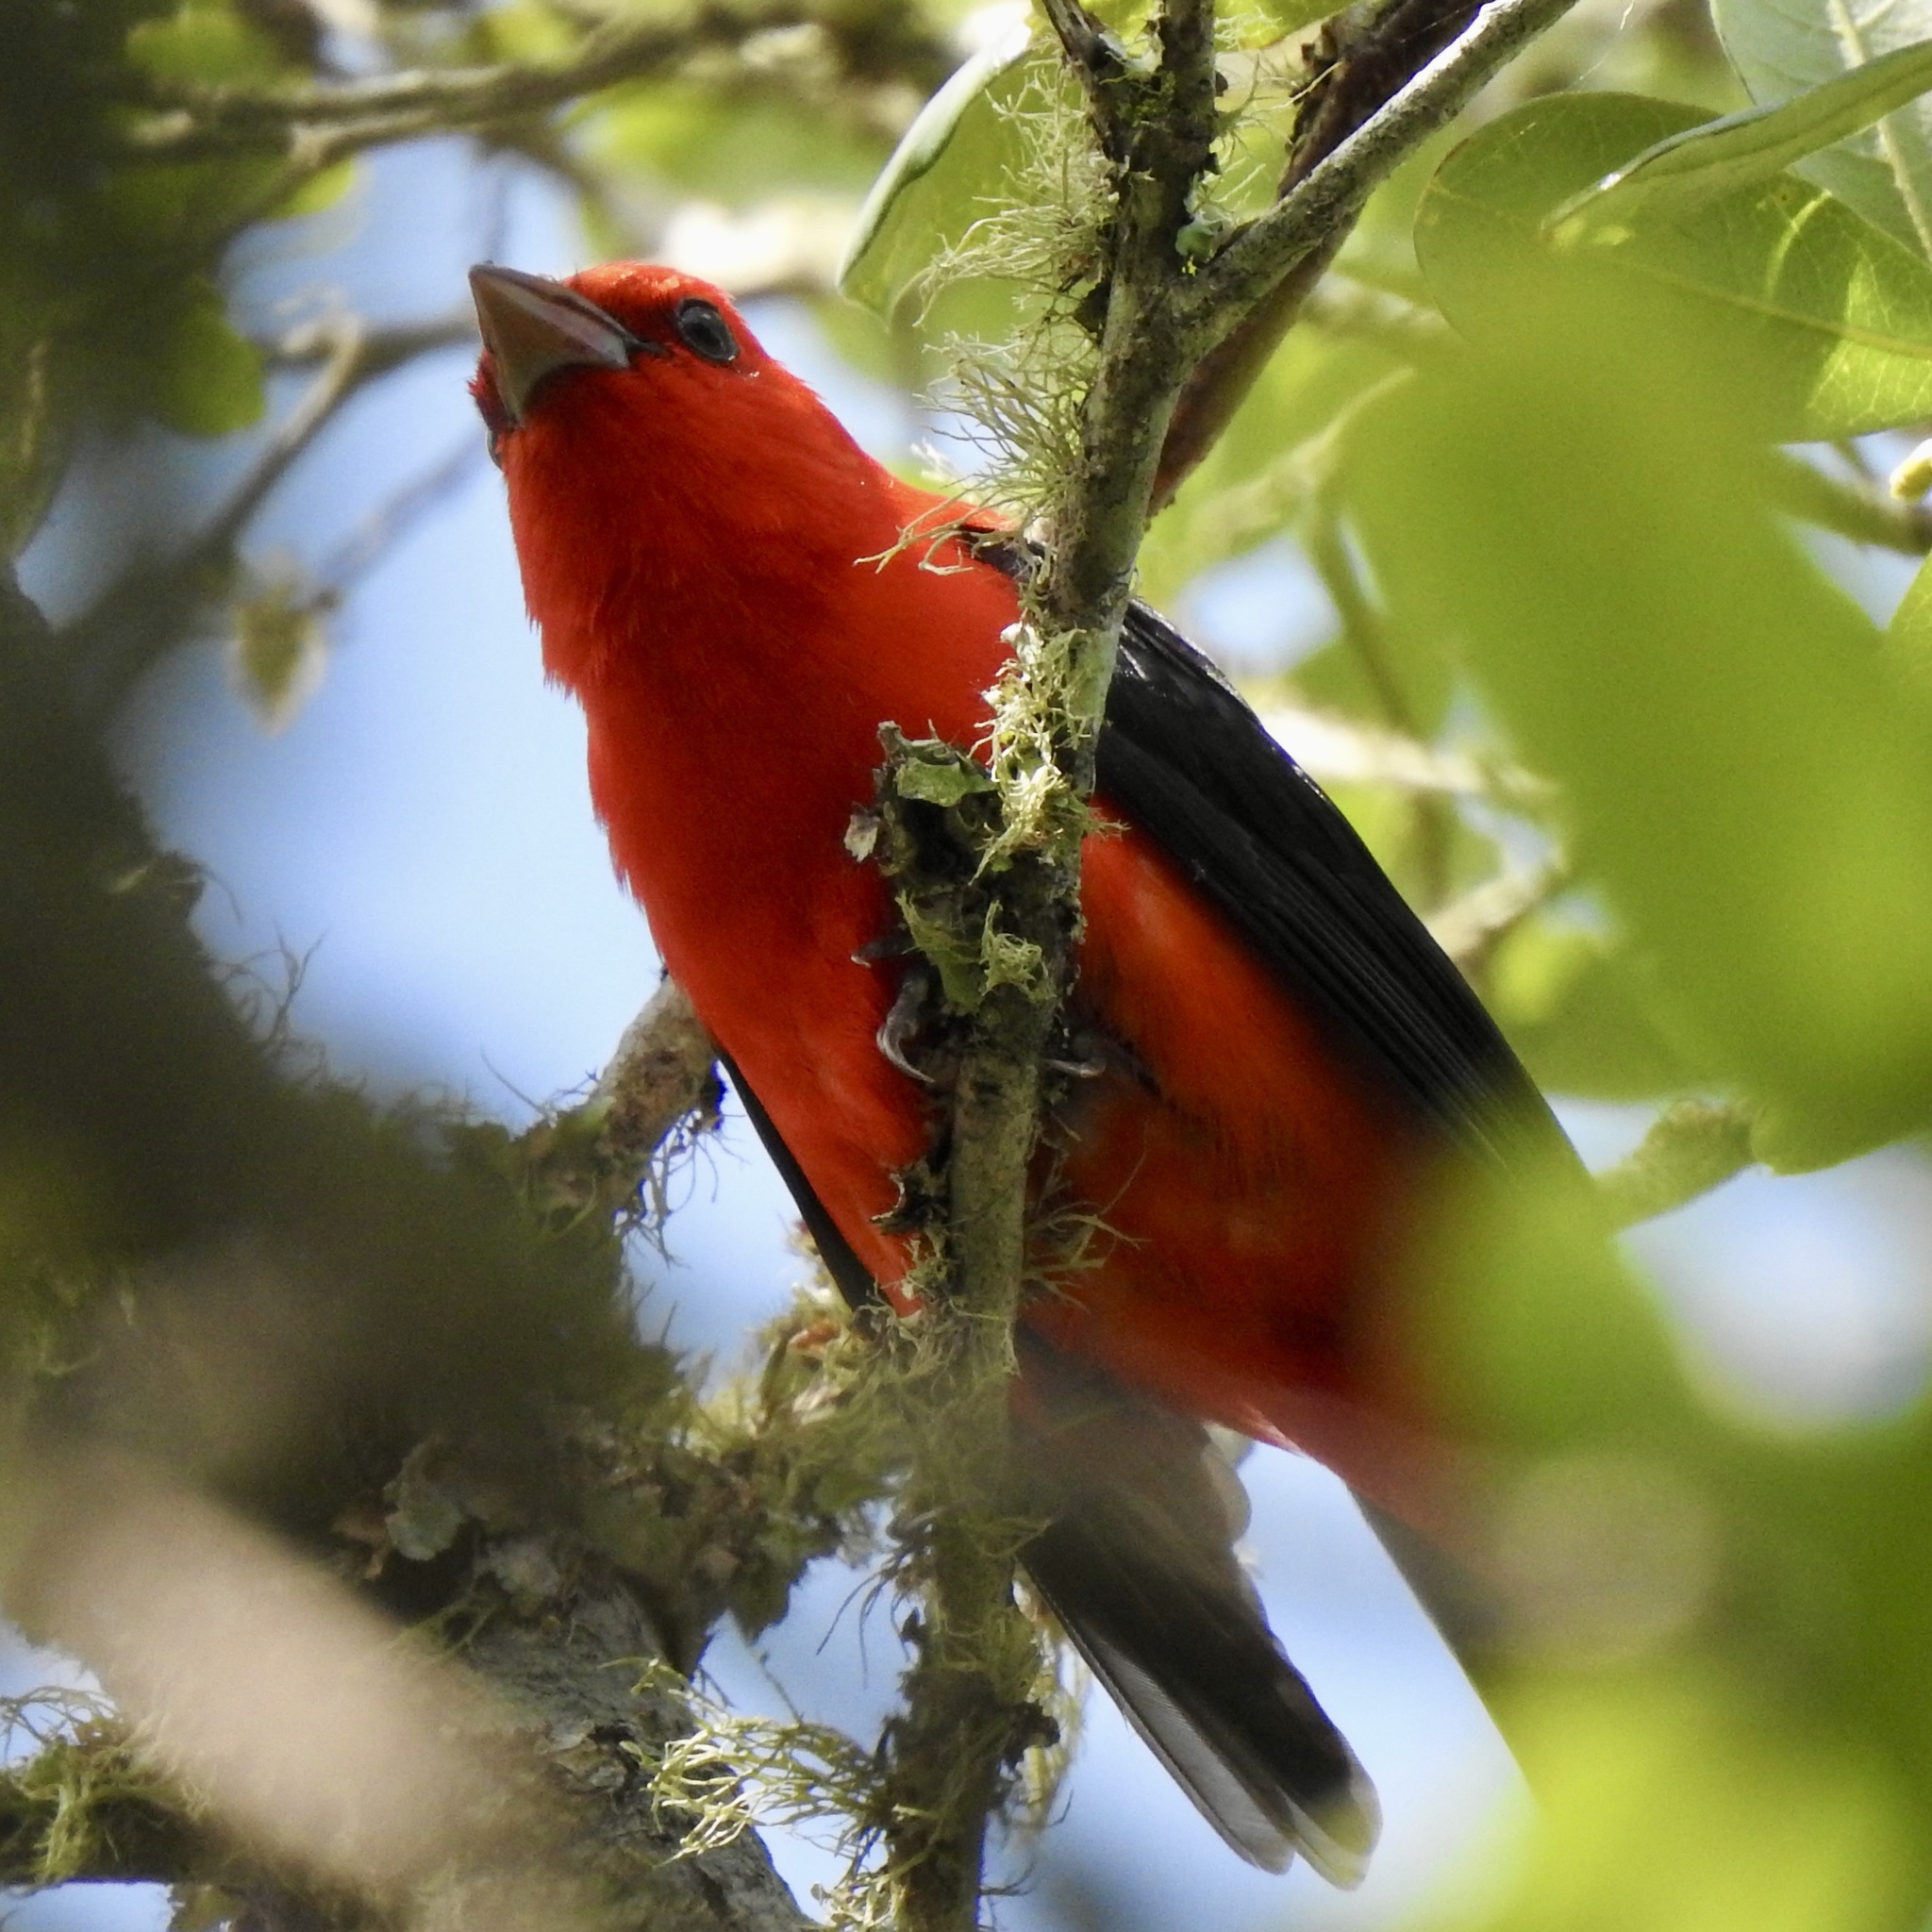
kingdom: Animalia
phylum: Chordata
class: Aves
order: Passeriformes
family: Cardinalidae
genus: Piranga
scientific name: Piranga olivacea
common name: Scarlet tanager
